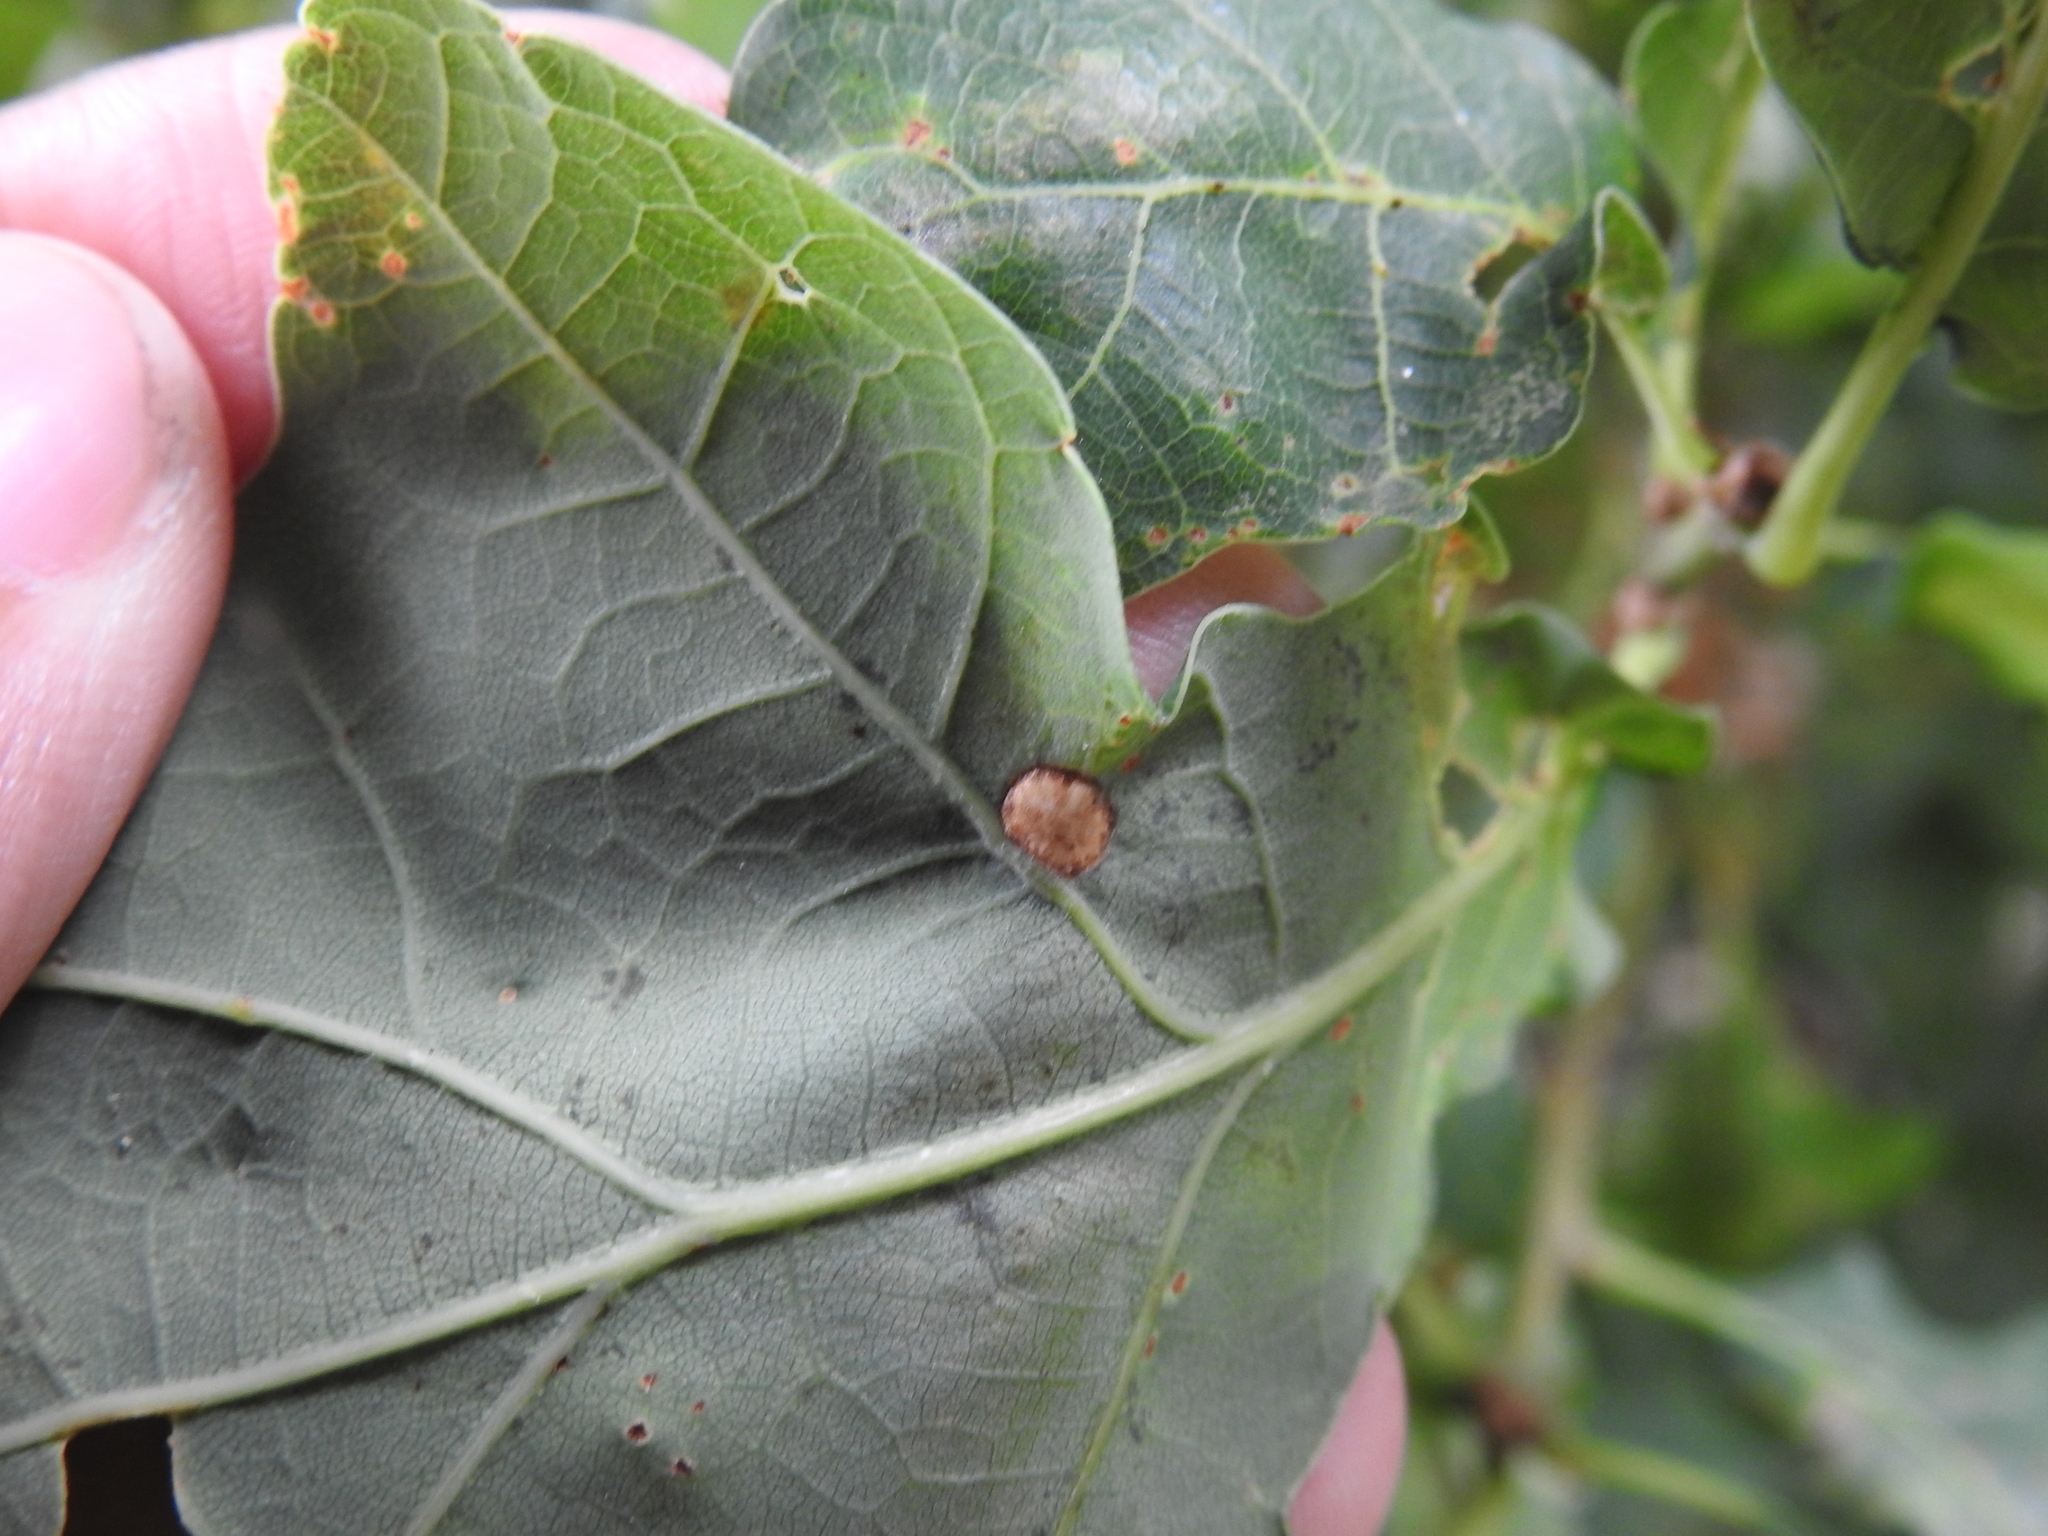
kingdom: Animalia
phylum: Arthropoda
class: Insecta
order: Hymenoptera
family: Cynipidae
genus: Neuroterus
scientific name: Neuroterus numismalis
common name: Silk-button spangle gall
